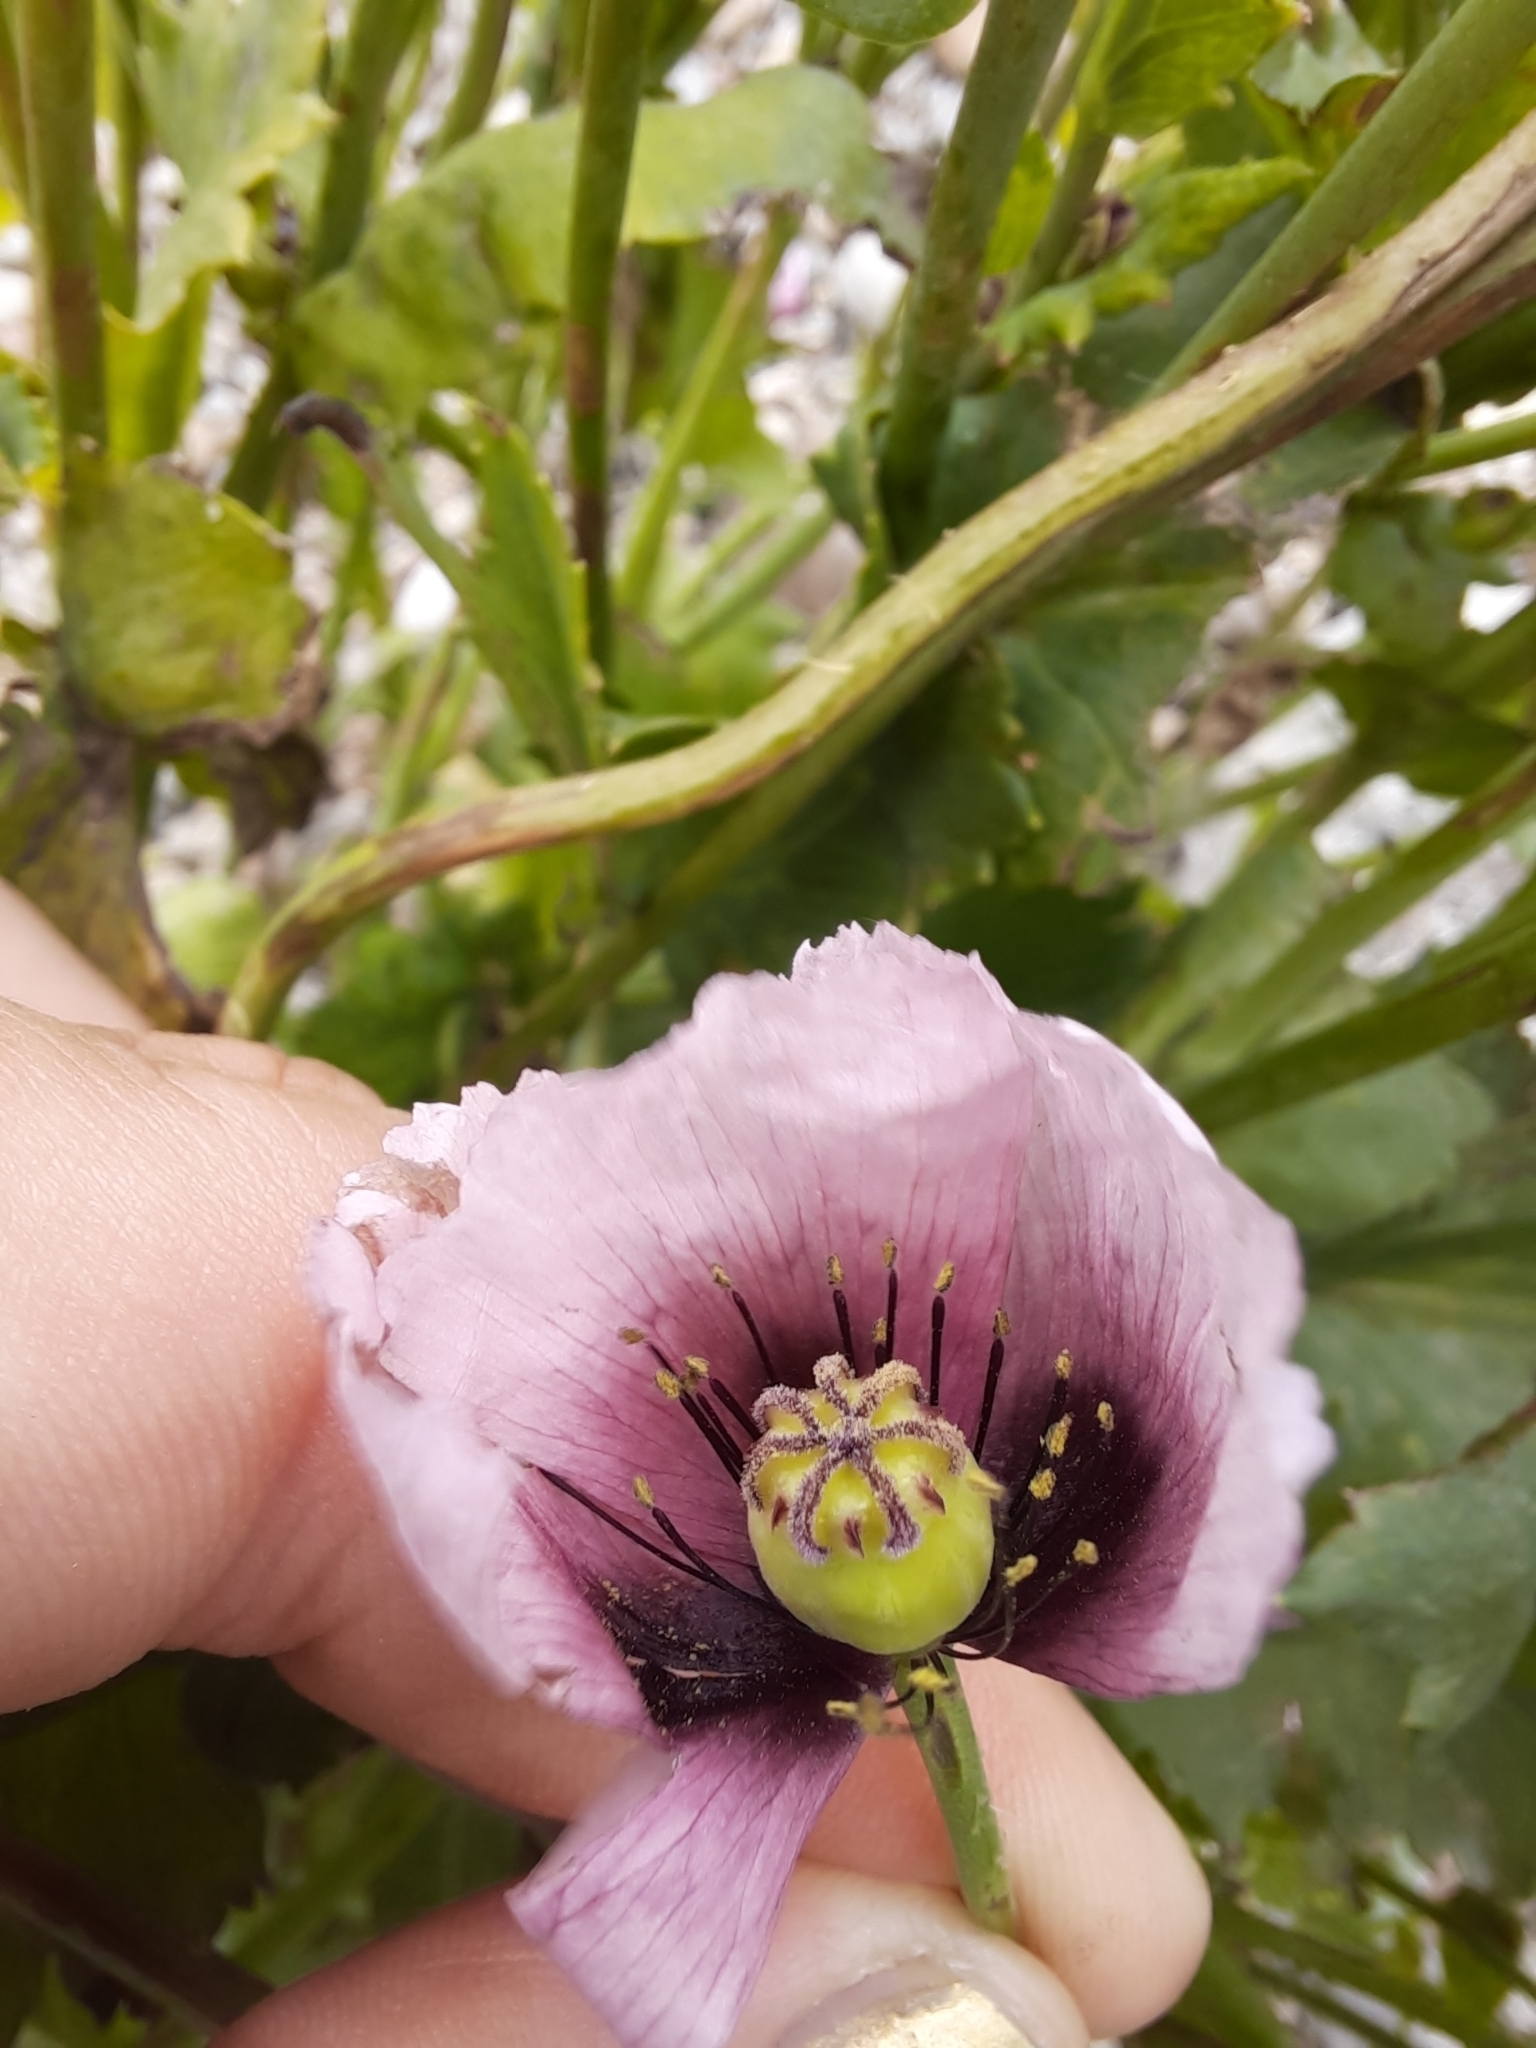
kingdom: Plantae
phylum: Tracheophyta
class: Magnoliopsida
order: Ranunculales
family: Papaveraceae
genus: Papaver
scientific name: Papaver somniferum
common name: Opium poppy
